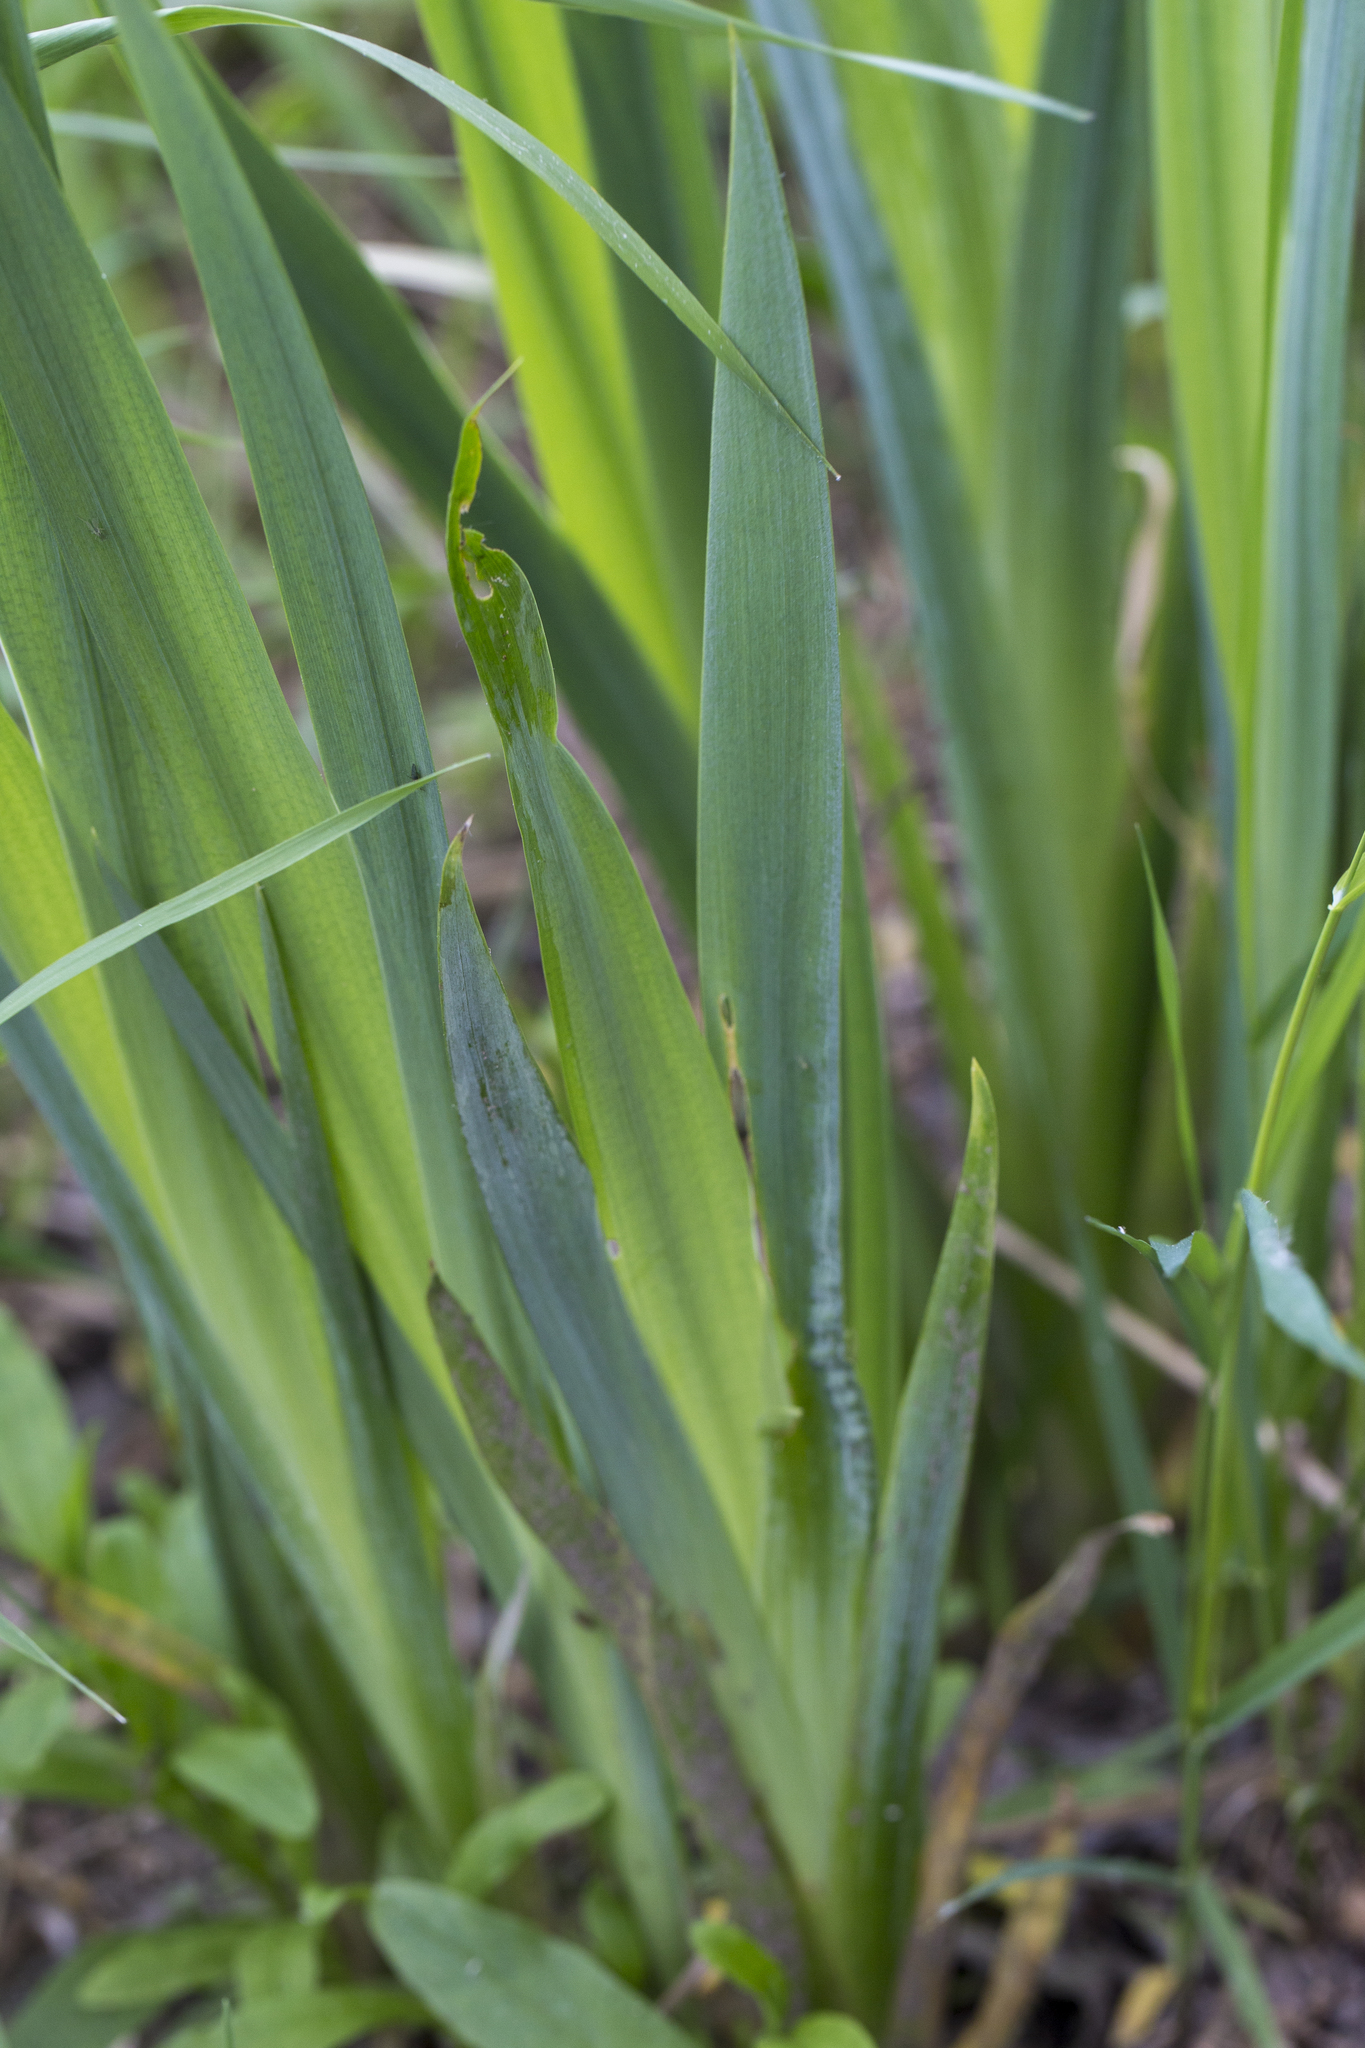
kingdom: Plantae
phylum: Tracheophyta
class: Liliopsida
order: Asparagales
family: Iridaceae
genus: Iris
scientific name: Iris pseudacorus
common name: Yellow flag
